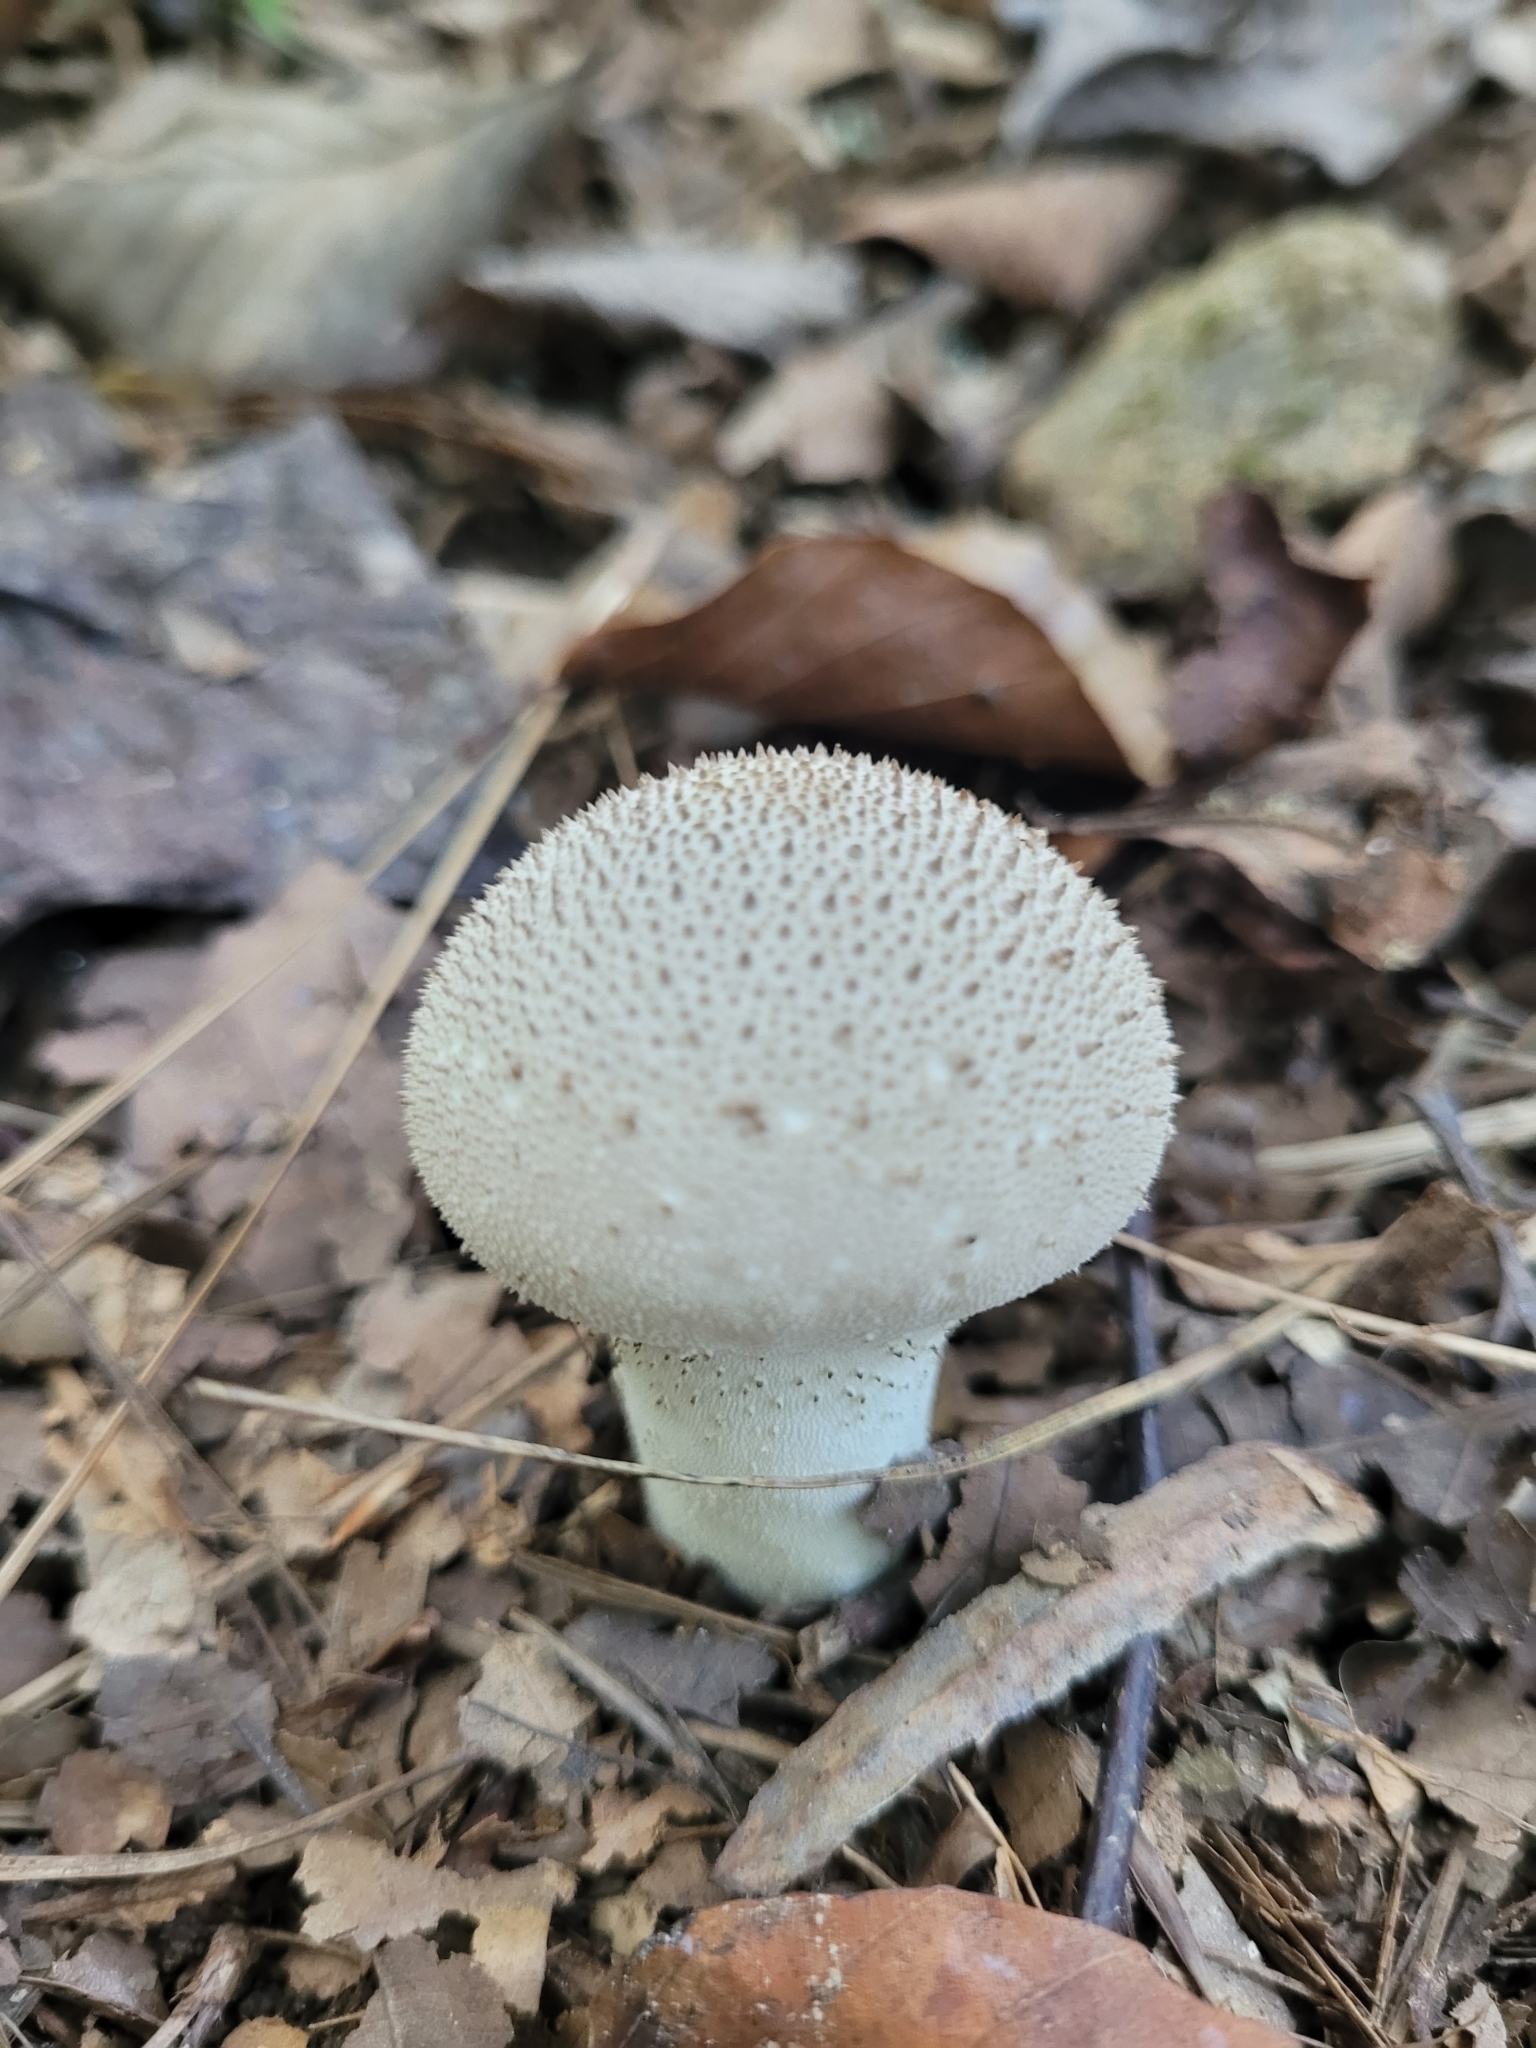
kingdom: Fungi
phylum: Basidiomycota
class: Agaricomycetes
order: Agaricales
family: Lycoperdaceae
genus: Lycoperdon
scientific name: Lycoperdon perlatum
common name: Common puffball
